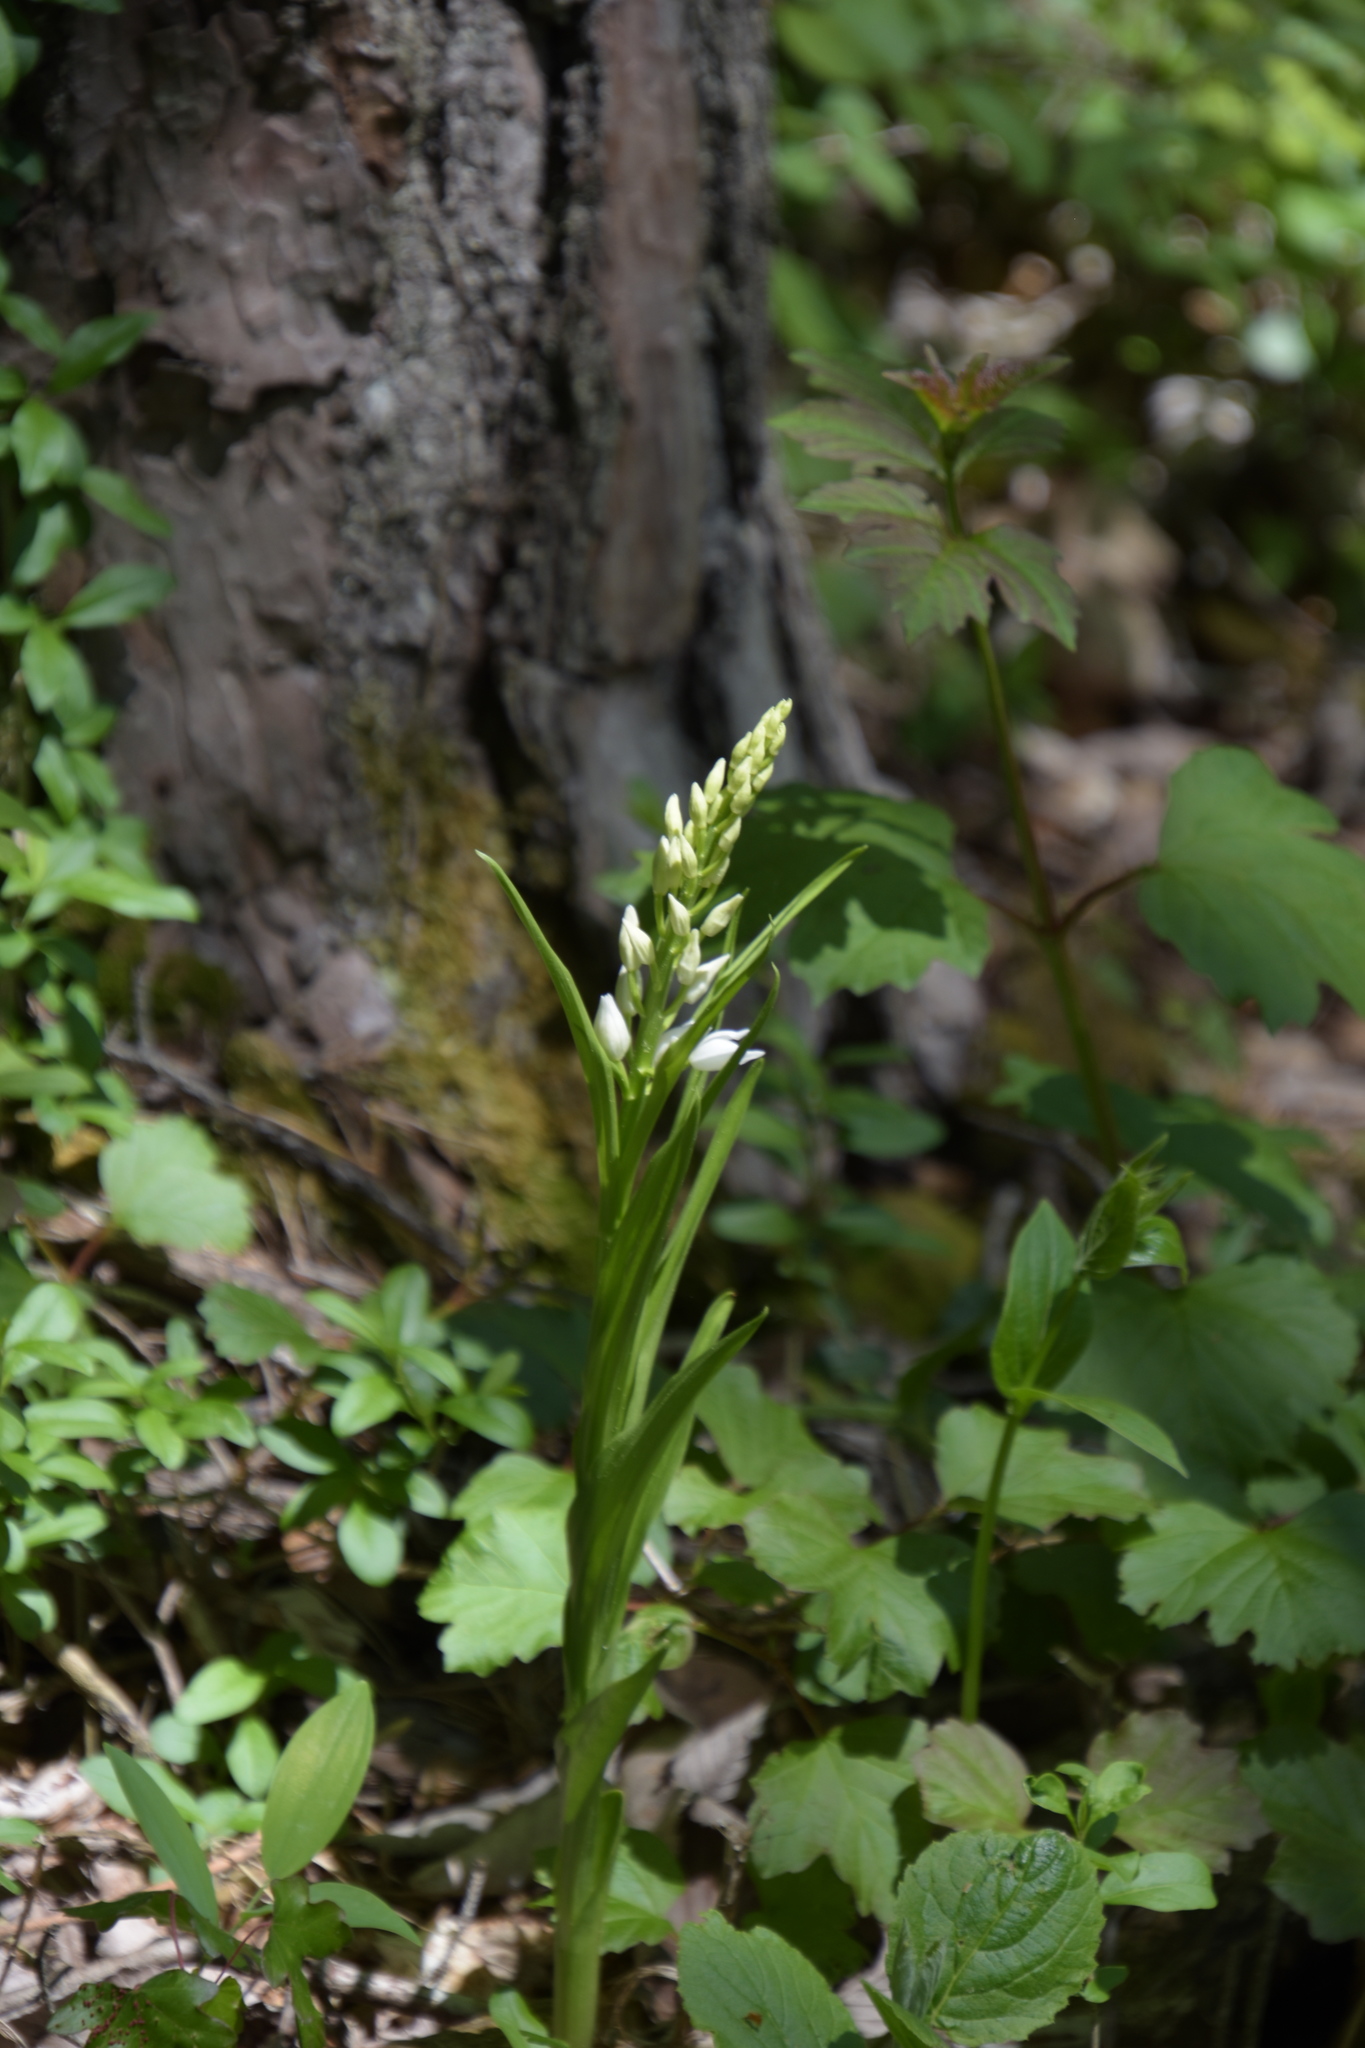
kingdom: Plantae
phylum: Tracheophyta
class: Liliopsida
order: Asparagales
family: Orchidaceae
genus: Cephalanthera
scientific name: Cephalanthera longifolia
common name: Narrow-leaved helleborine
